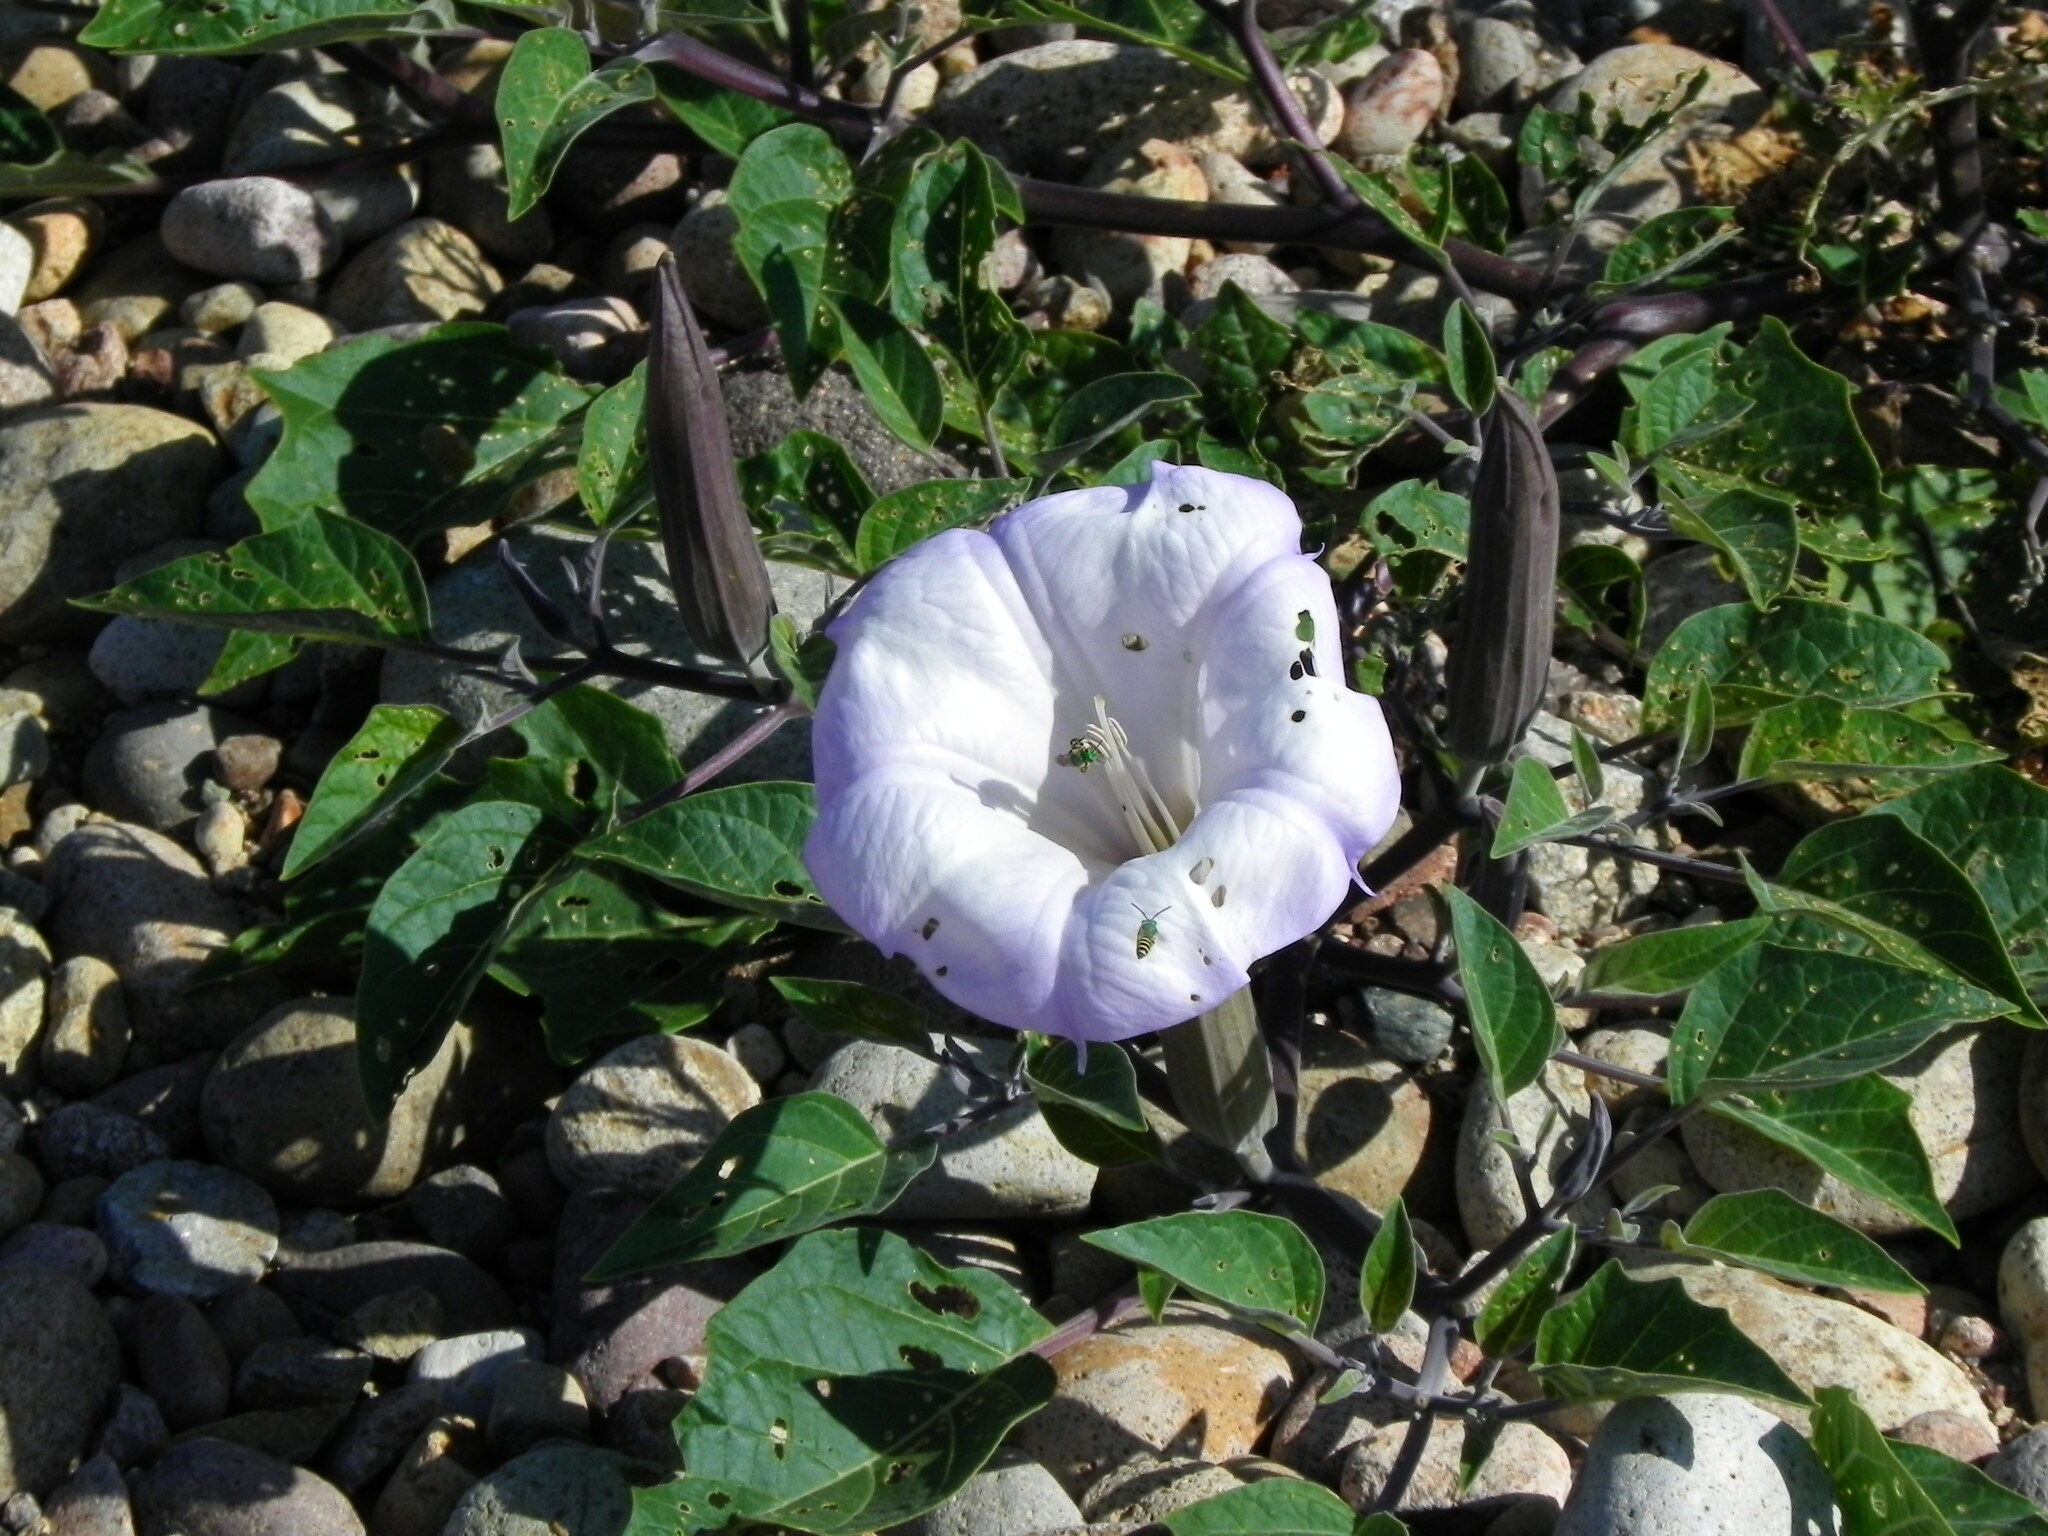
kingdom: Plantae
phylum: Tracheophyta
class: Magnoliopsida
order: Solanales
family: Solanaceae
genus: Datura
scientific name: Datura wrightii
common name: Sacred thorn-apple
